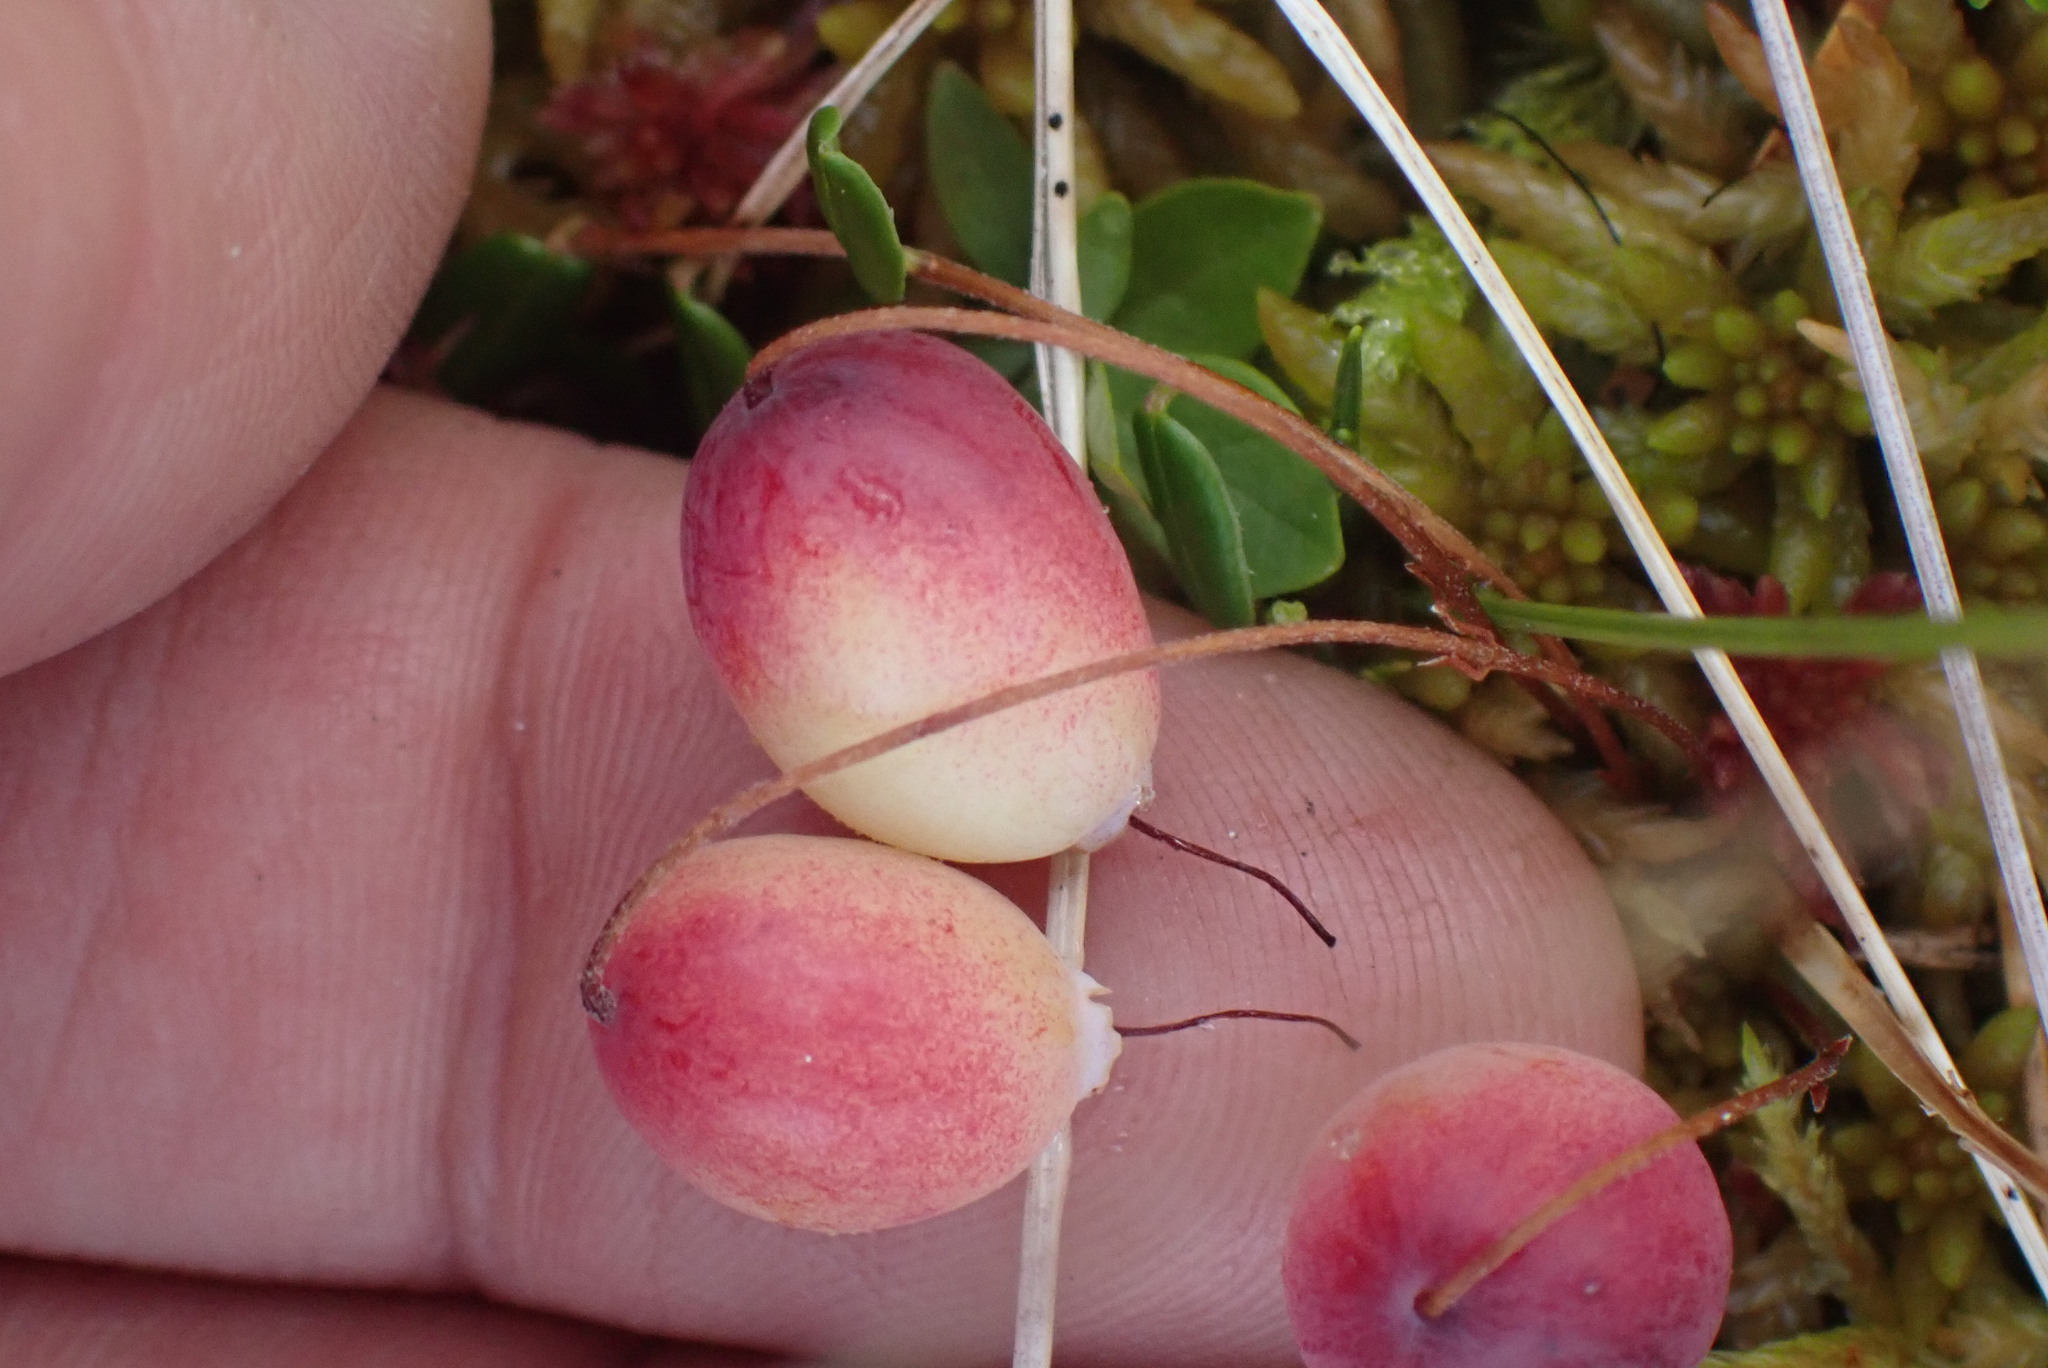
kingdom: Plantae
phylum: Tracheophyta
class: Magnoliopsida
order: Ericales
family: Ericaceae
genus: Vaccinium
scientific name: Vaccinium oxycoccos
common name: Cranberry
